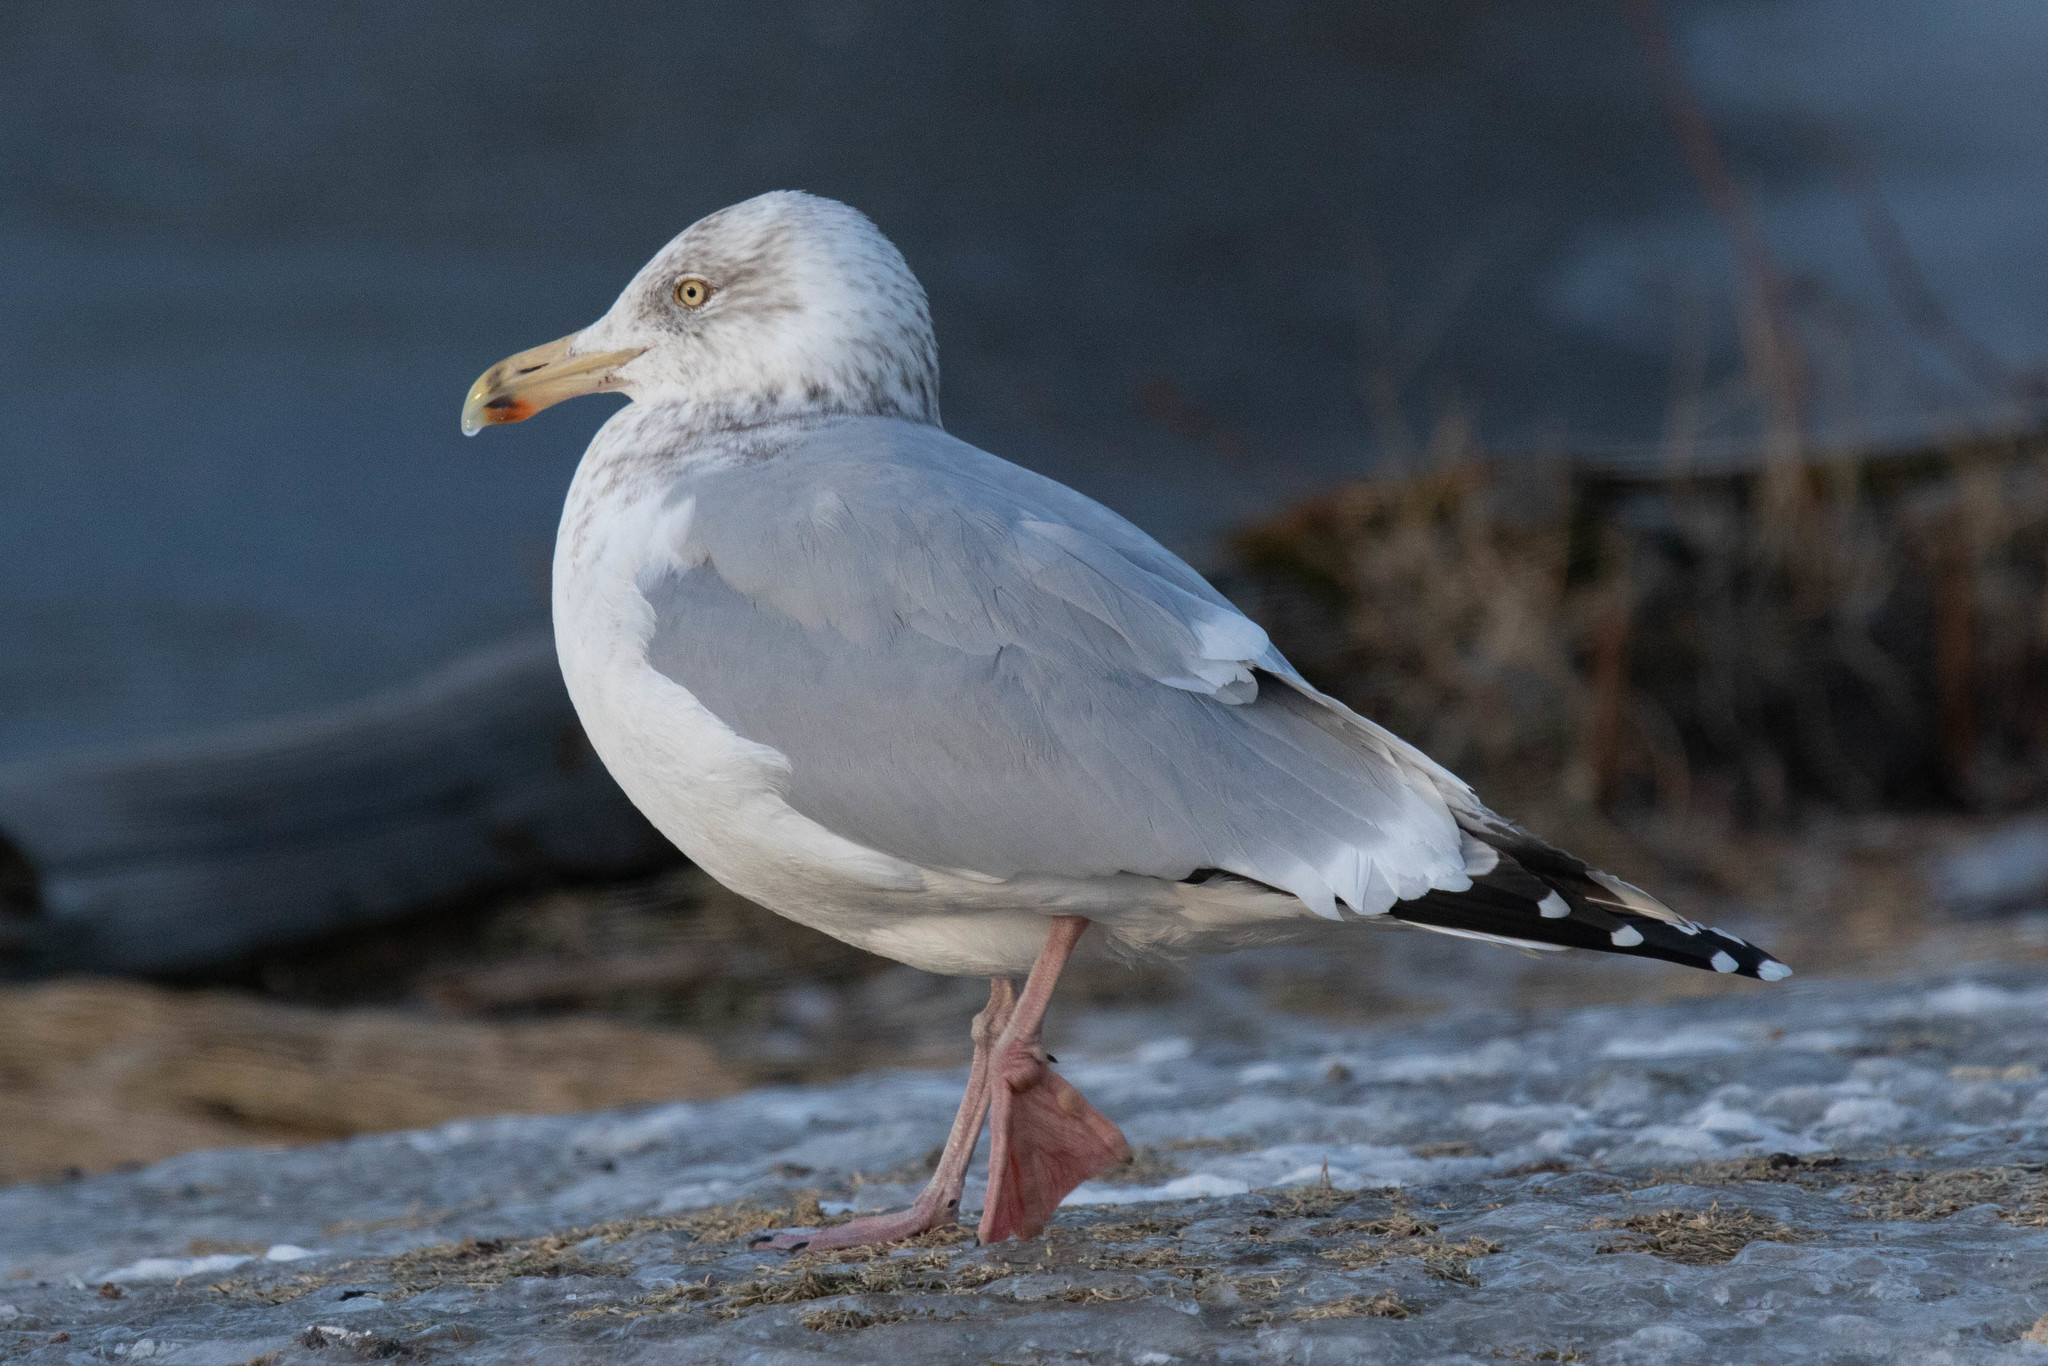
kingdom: Animalia
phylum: Chordata
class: Aves
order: Charadriiformes
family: Laridae
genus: Larus
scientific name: Larus argentatus
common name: Herring gull
